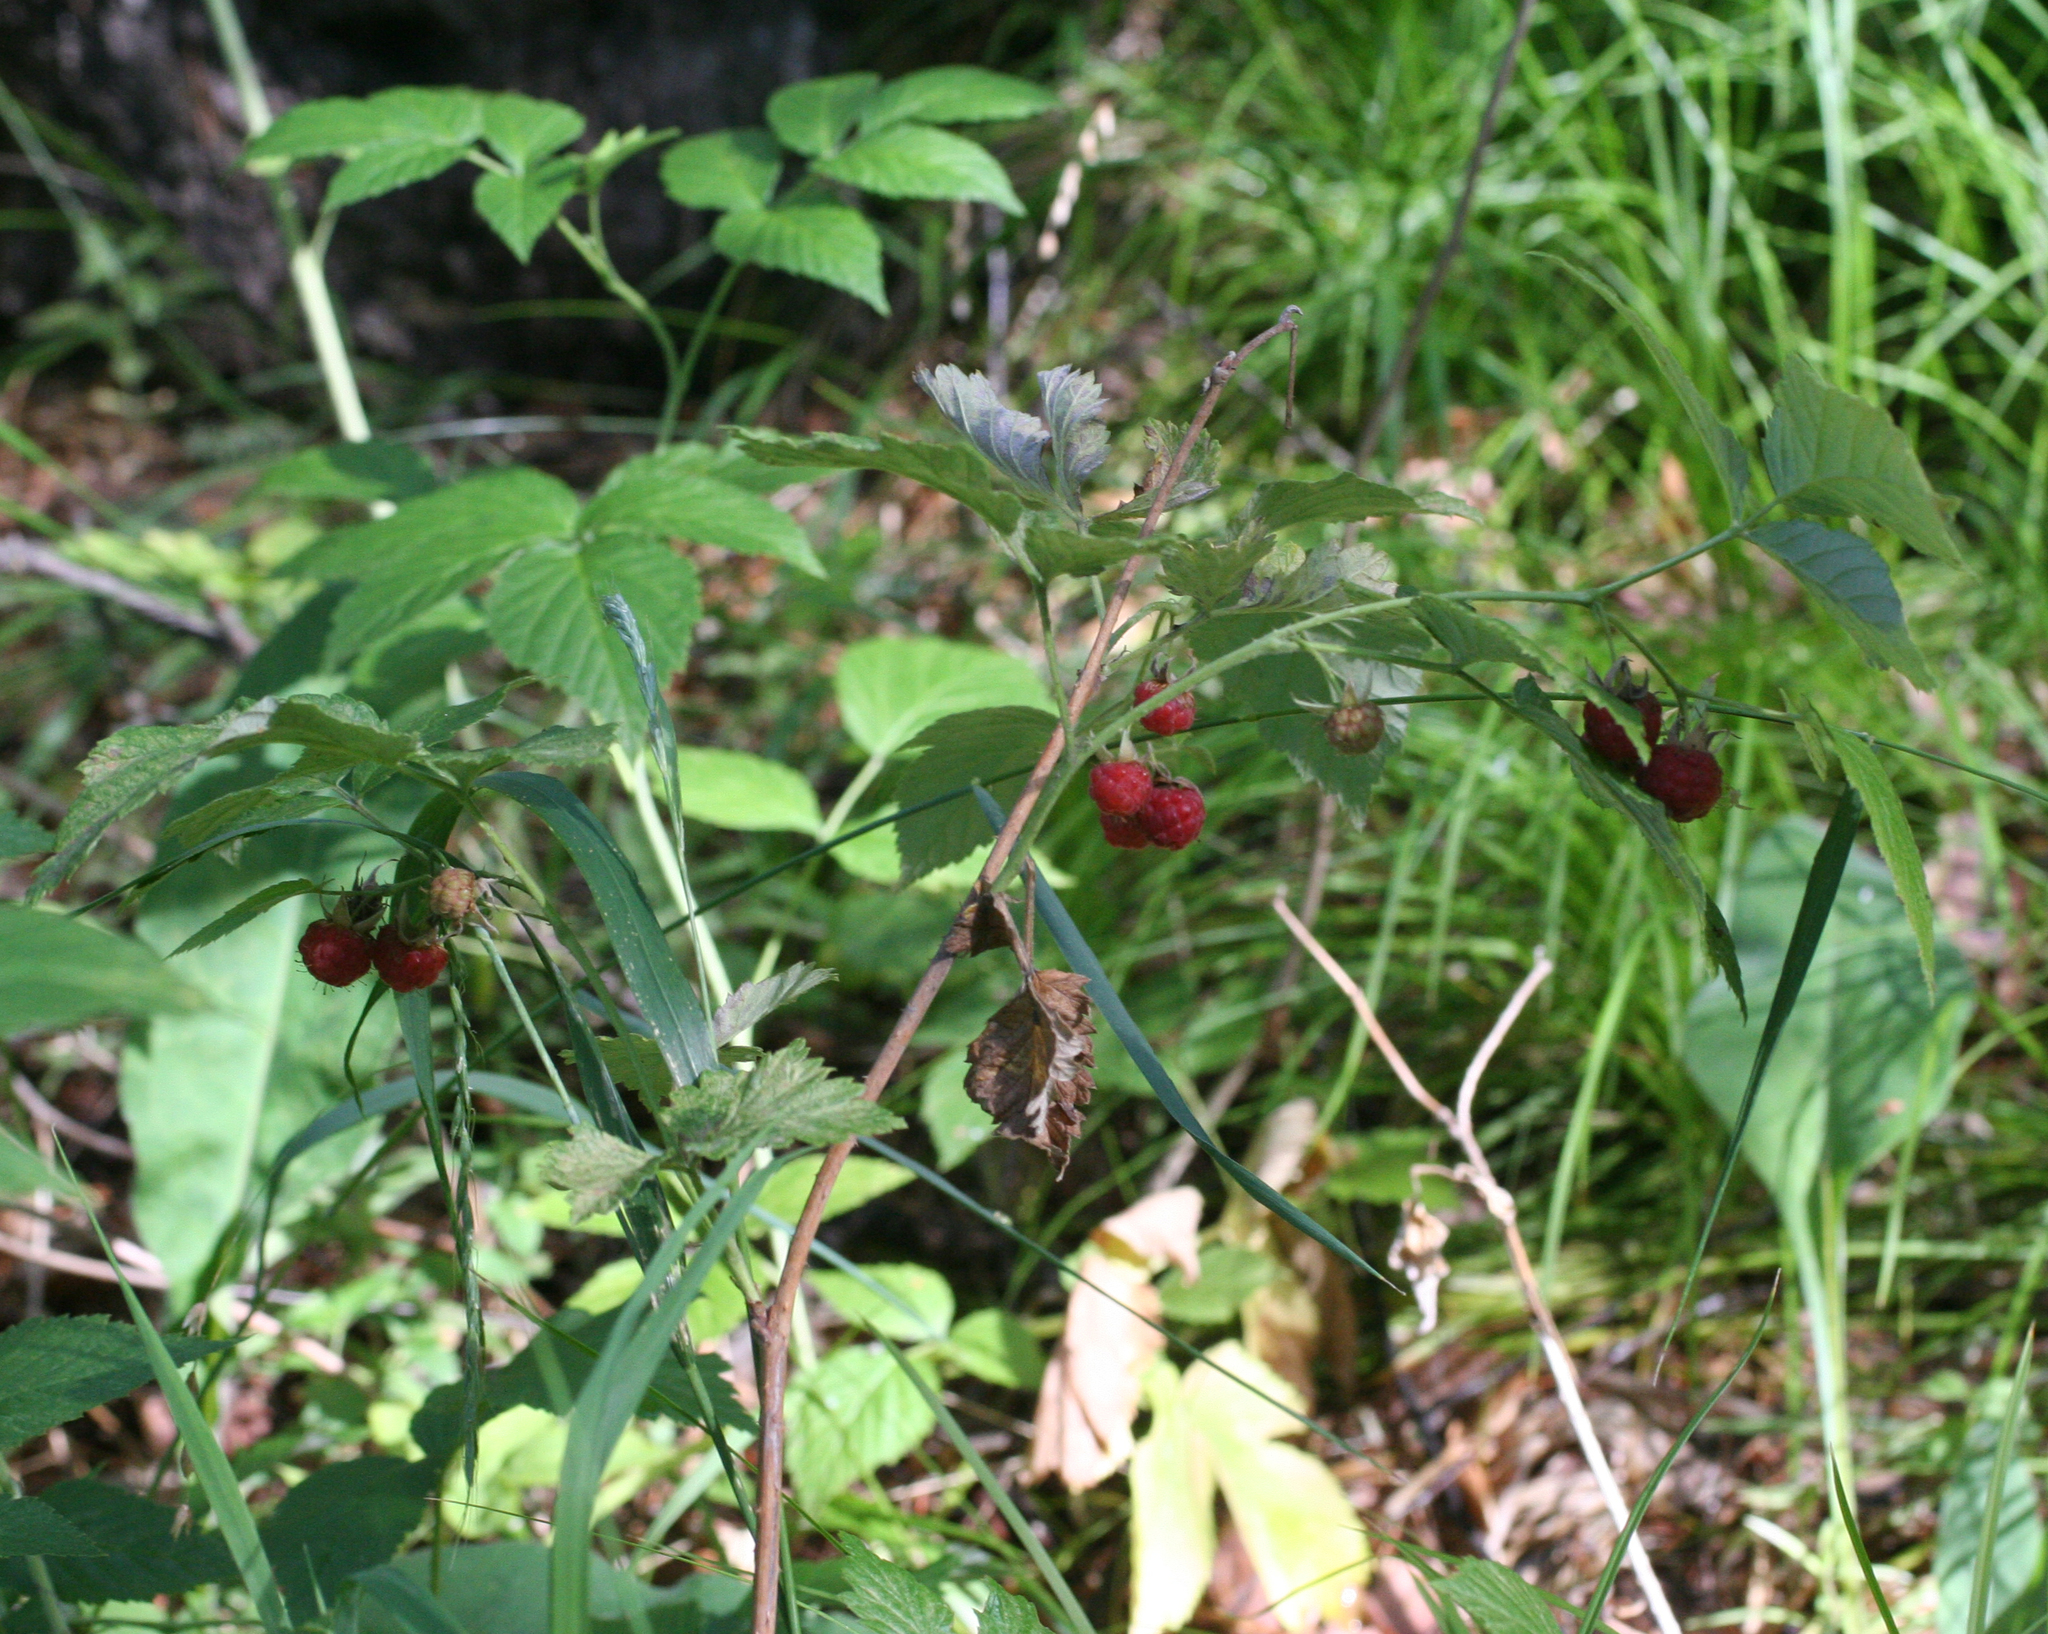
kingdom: Plantae
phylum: Tracheophyta
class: Magnoliopsida
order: Rosales
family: Rosaceae
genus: Rubus
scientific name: Rubus idaeus
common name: Raspberry
